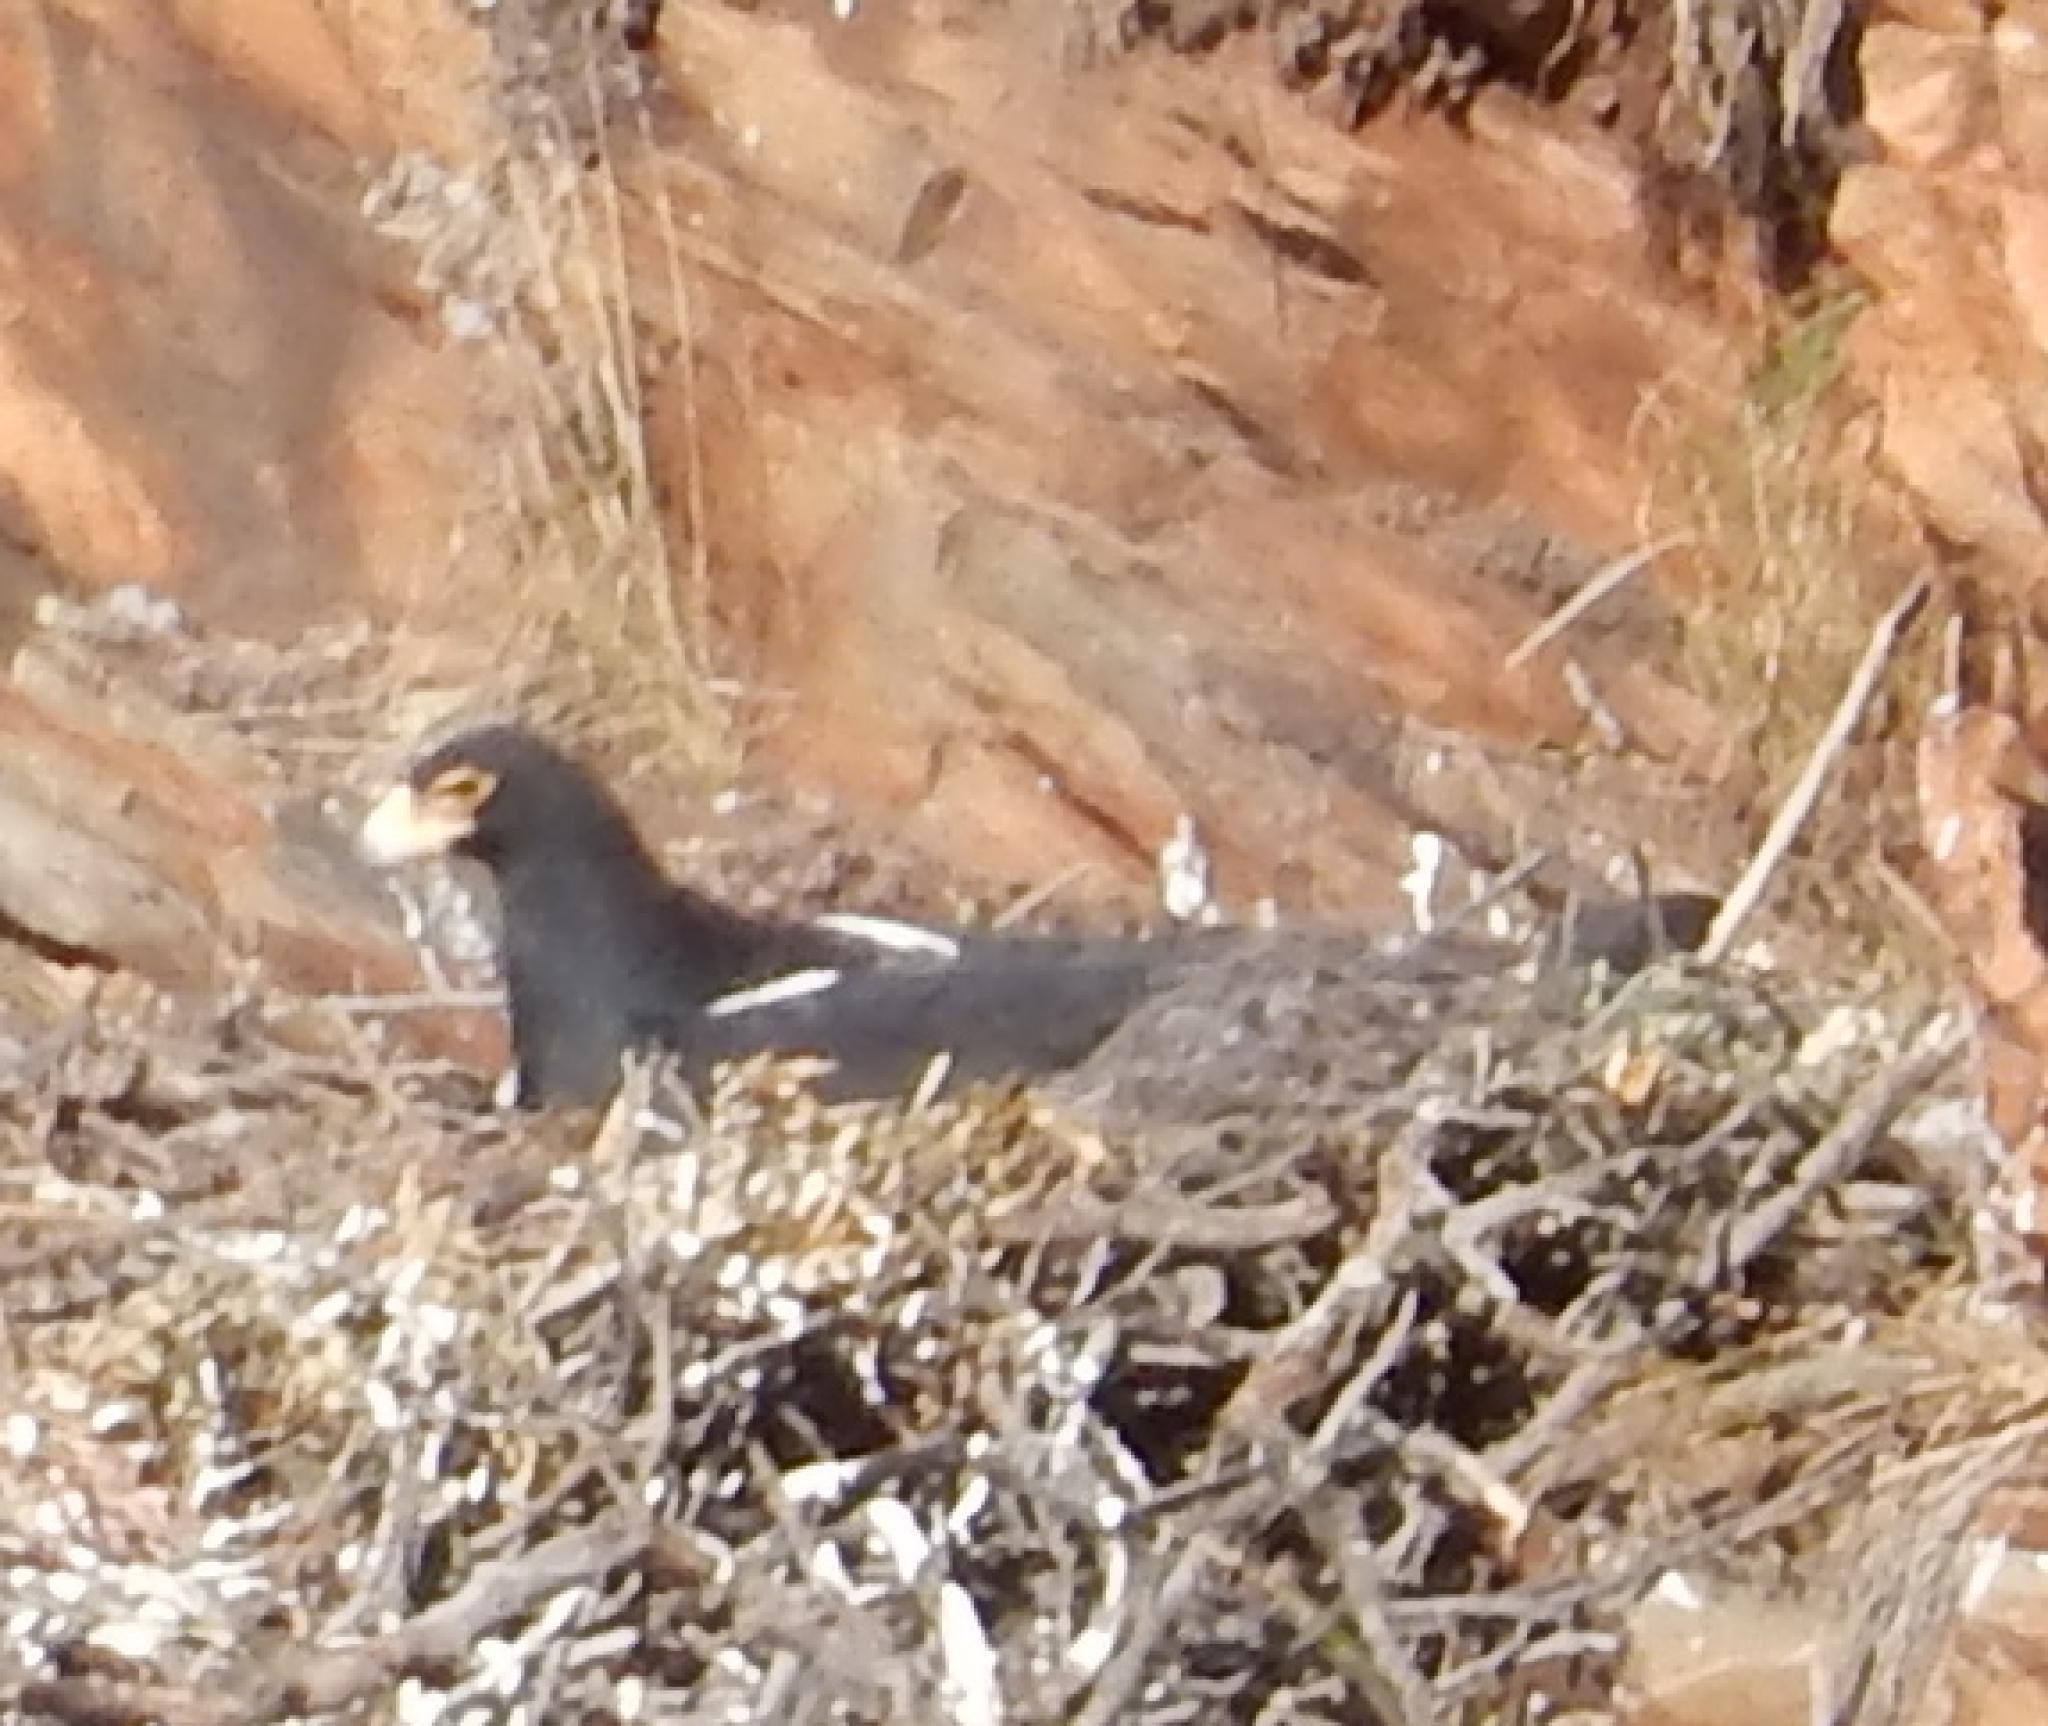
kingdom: Animalia
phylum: Chordata
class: Aves
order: Accipitriformes
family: Accipitridae
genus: Aquila
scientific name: Aquila verreauxii
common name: Verreaux's eagle
